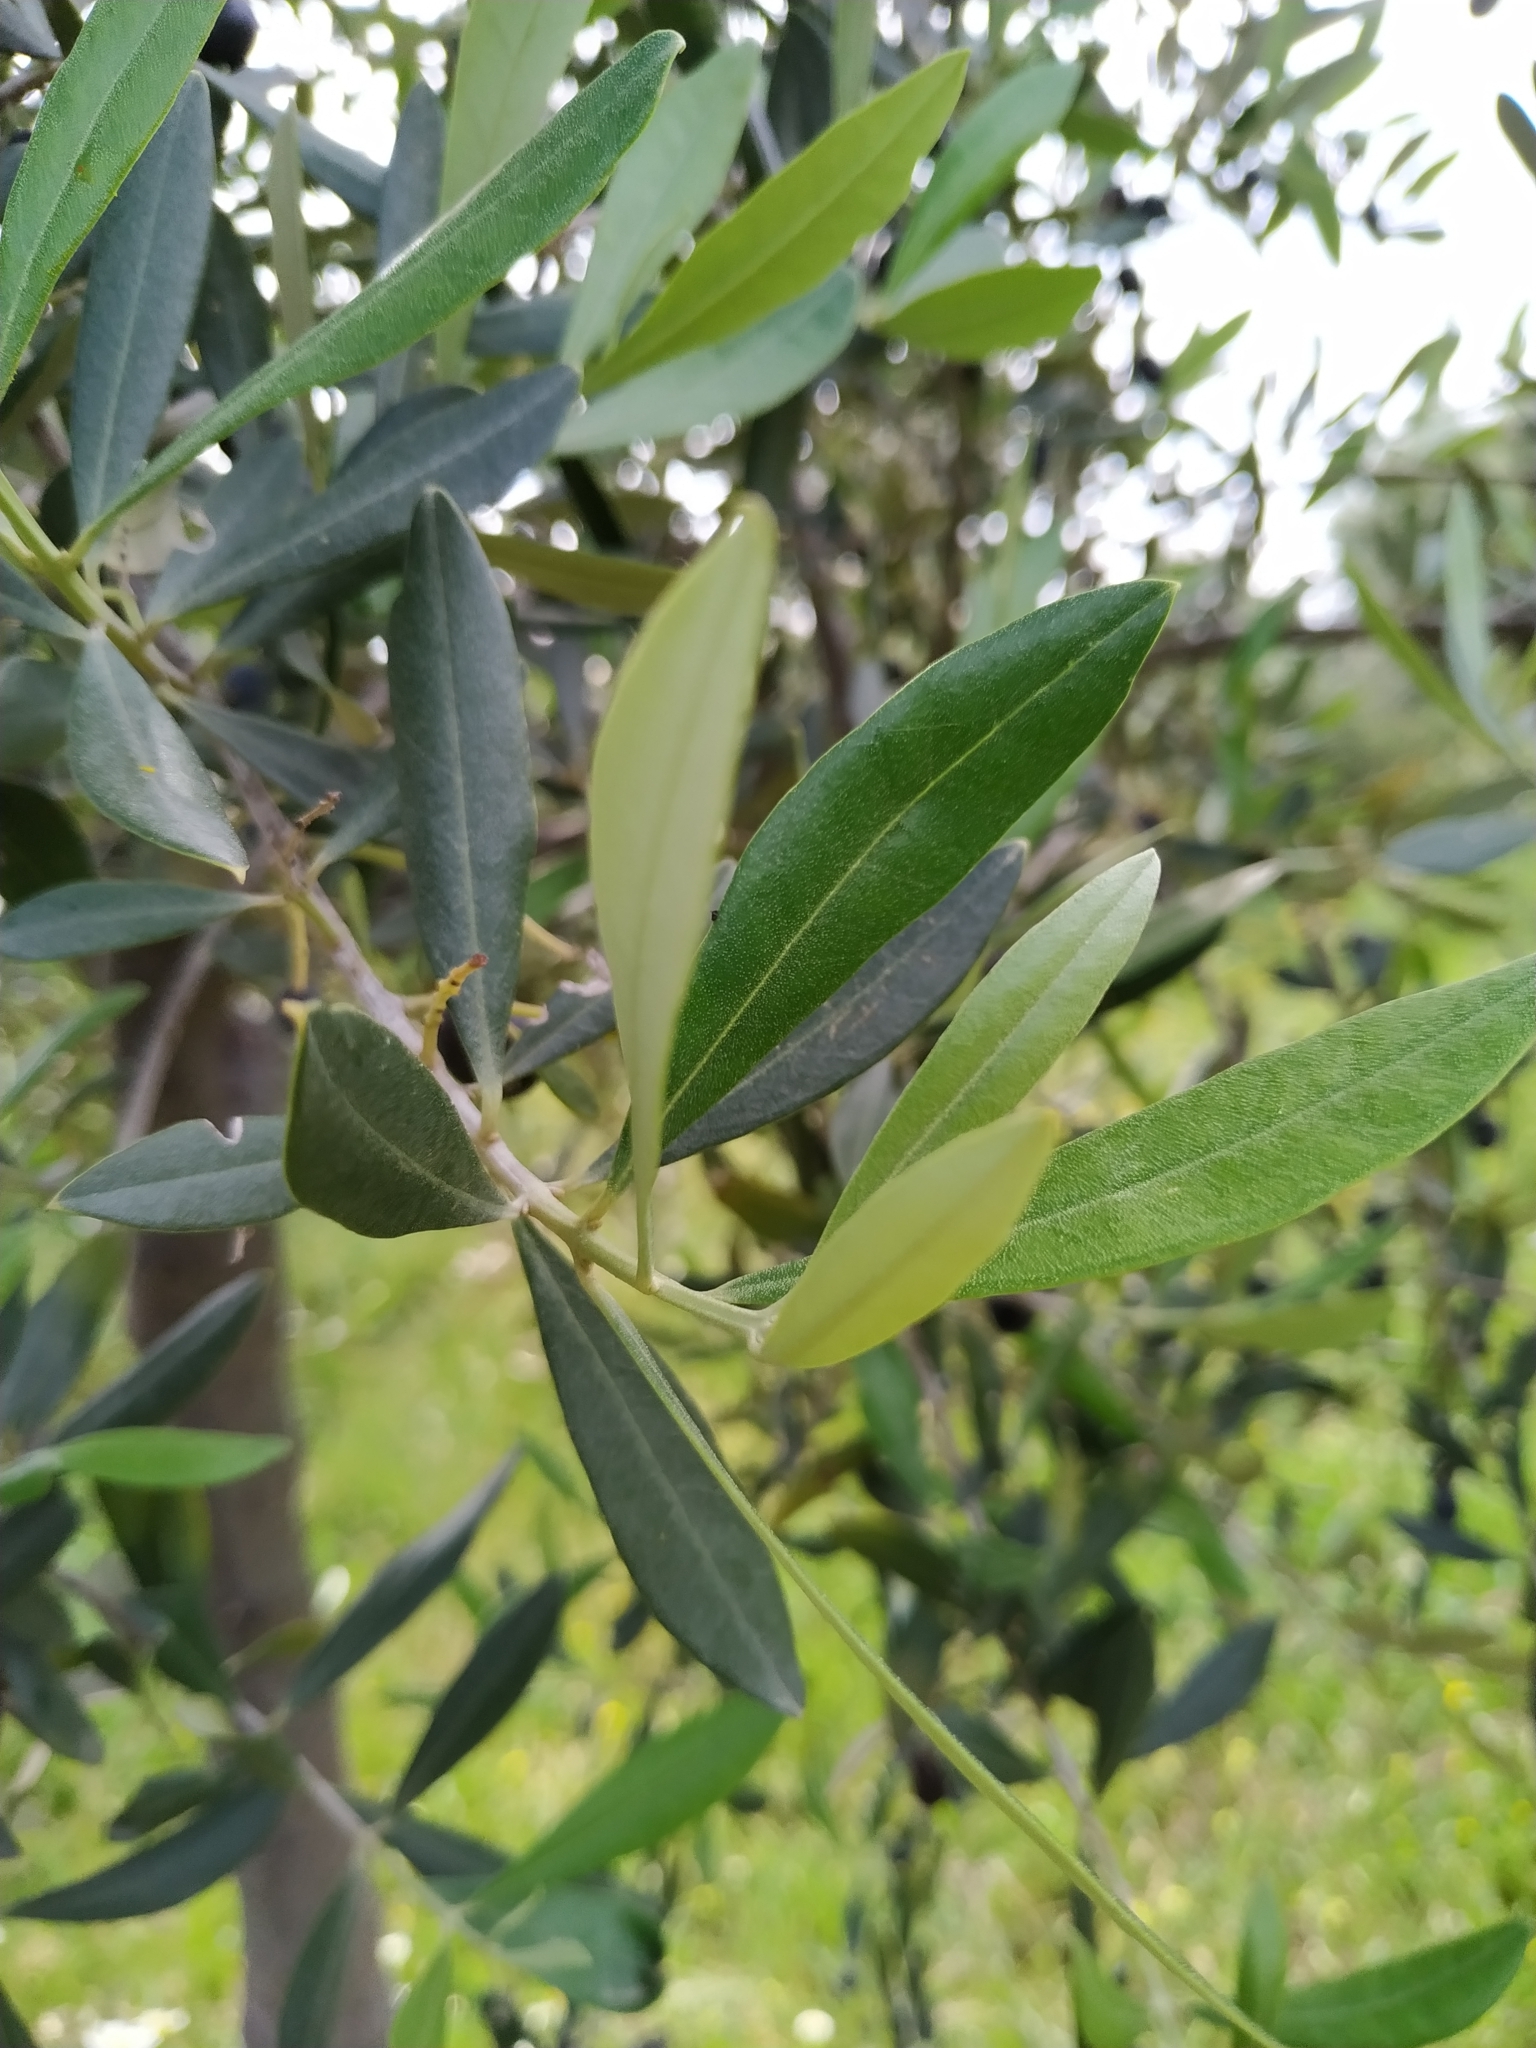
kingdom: Plantae
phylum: Tracheophyta
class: Magnoliopsida
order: Lamiales
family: Oleaceae
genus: Olea
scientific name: Olea europaea
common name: Olive
